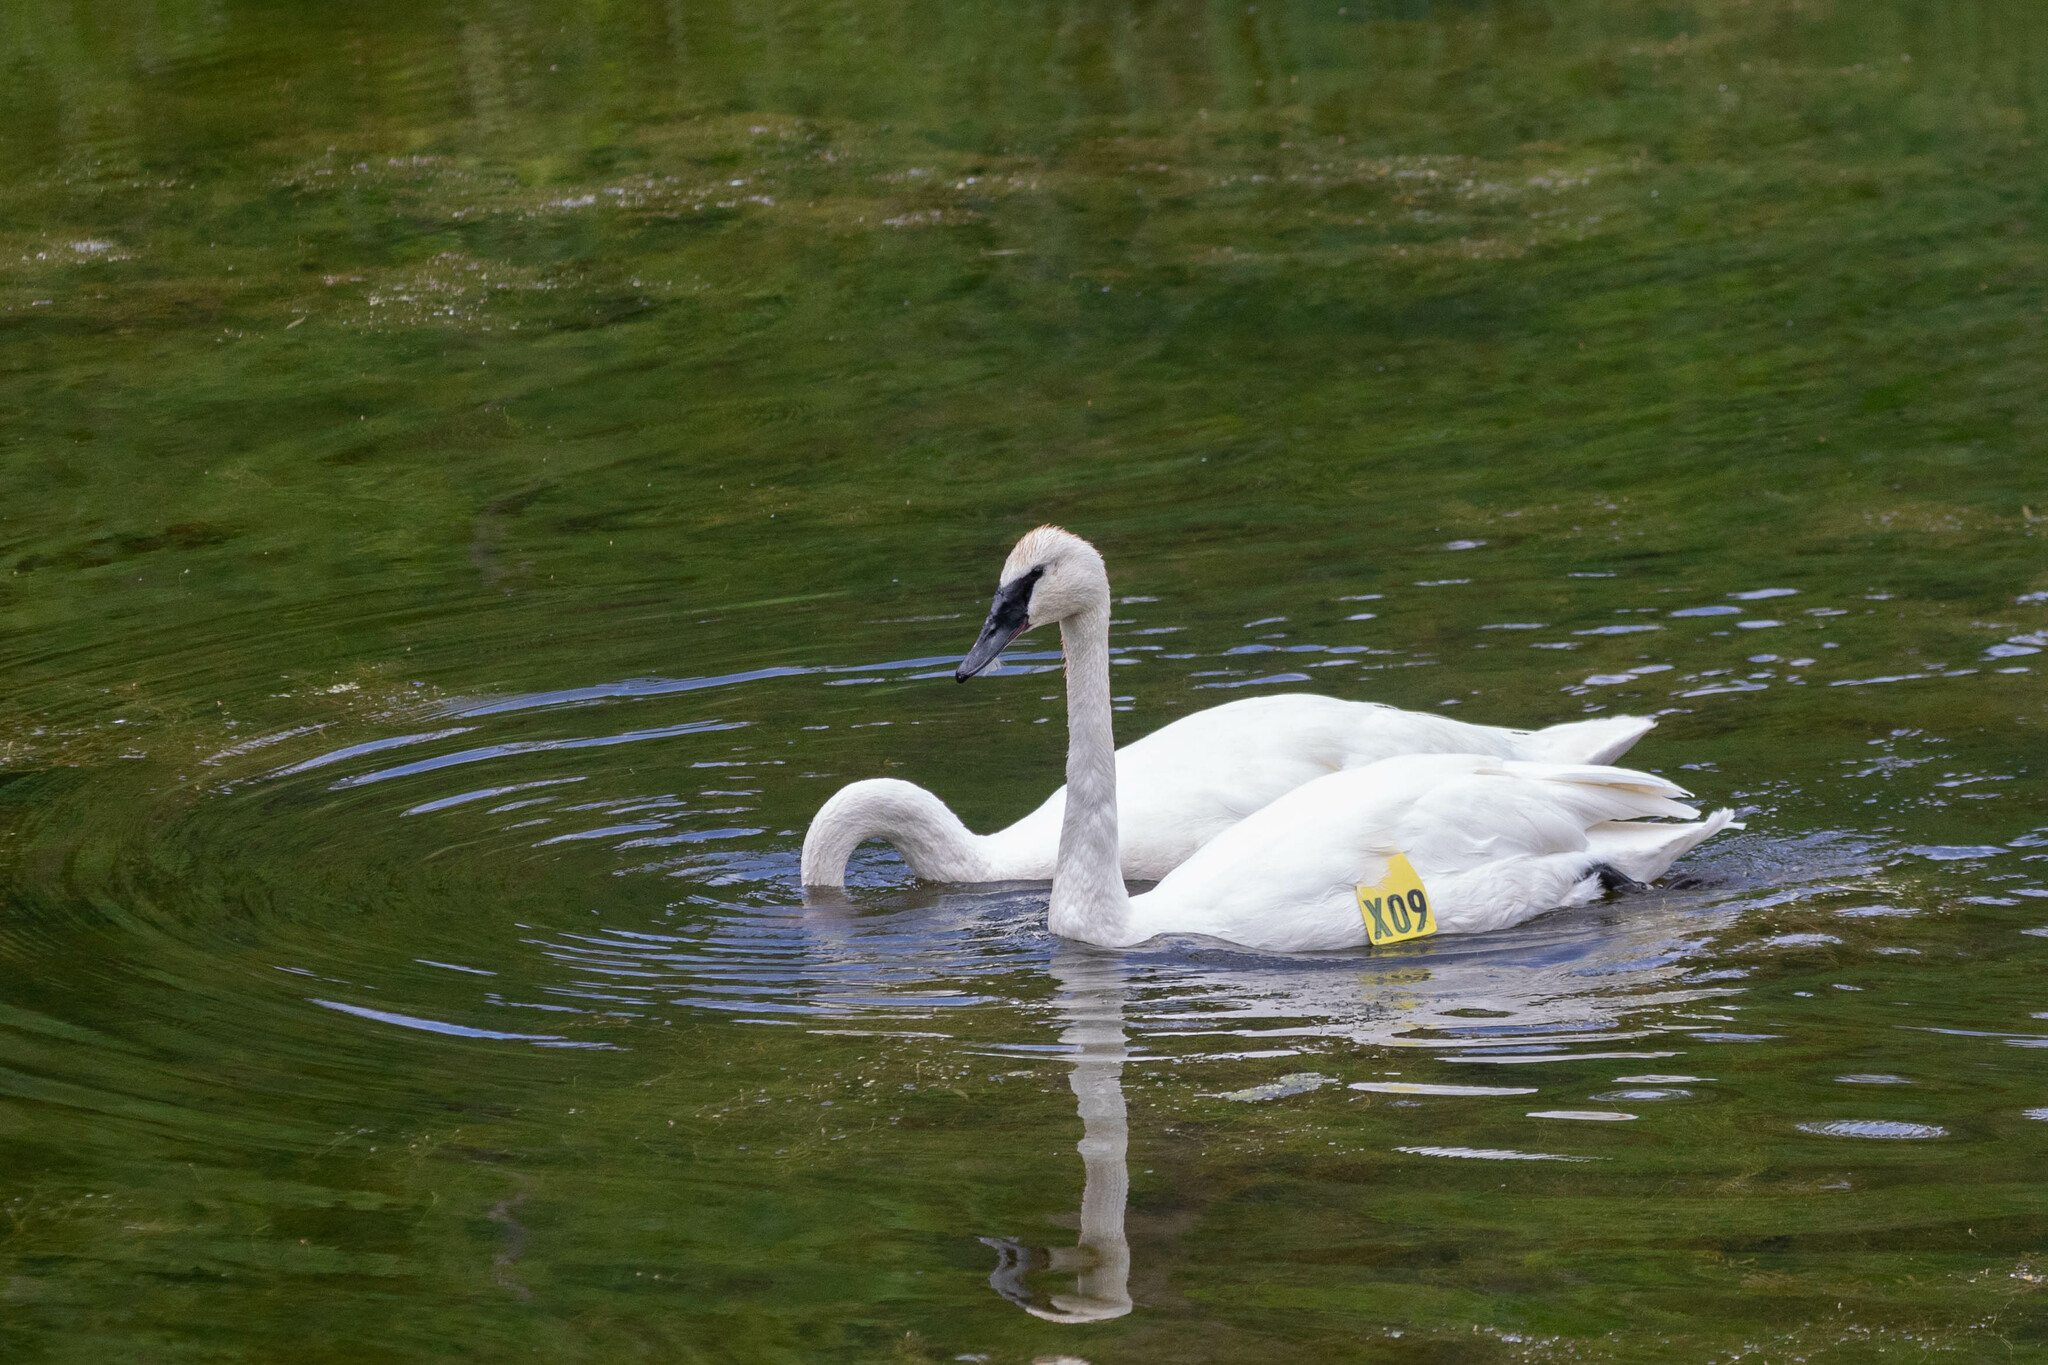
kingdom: Animalia
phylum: Chordata
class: Aves
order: Anseriformes
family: Anatidae
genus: Cygnus
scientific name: Cygnus buccinator
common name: Trumpeter swan
